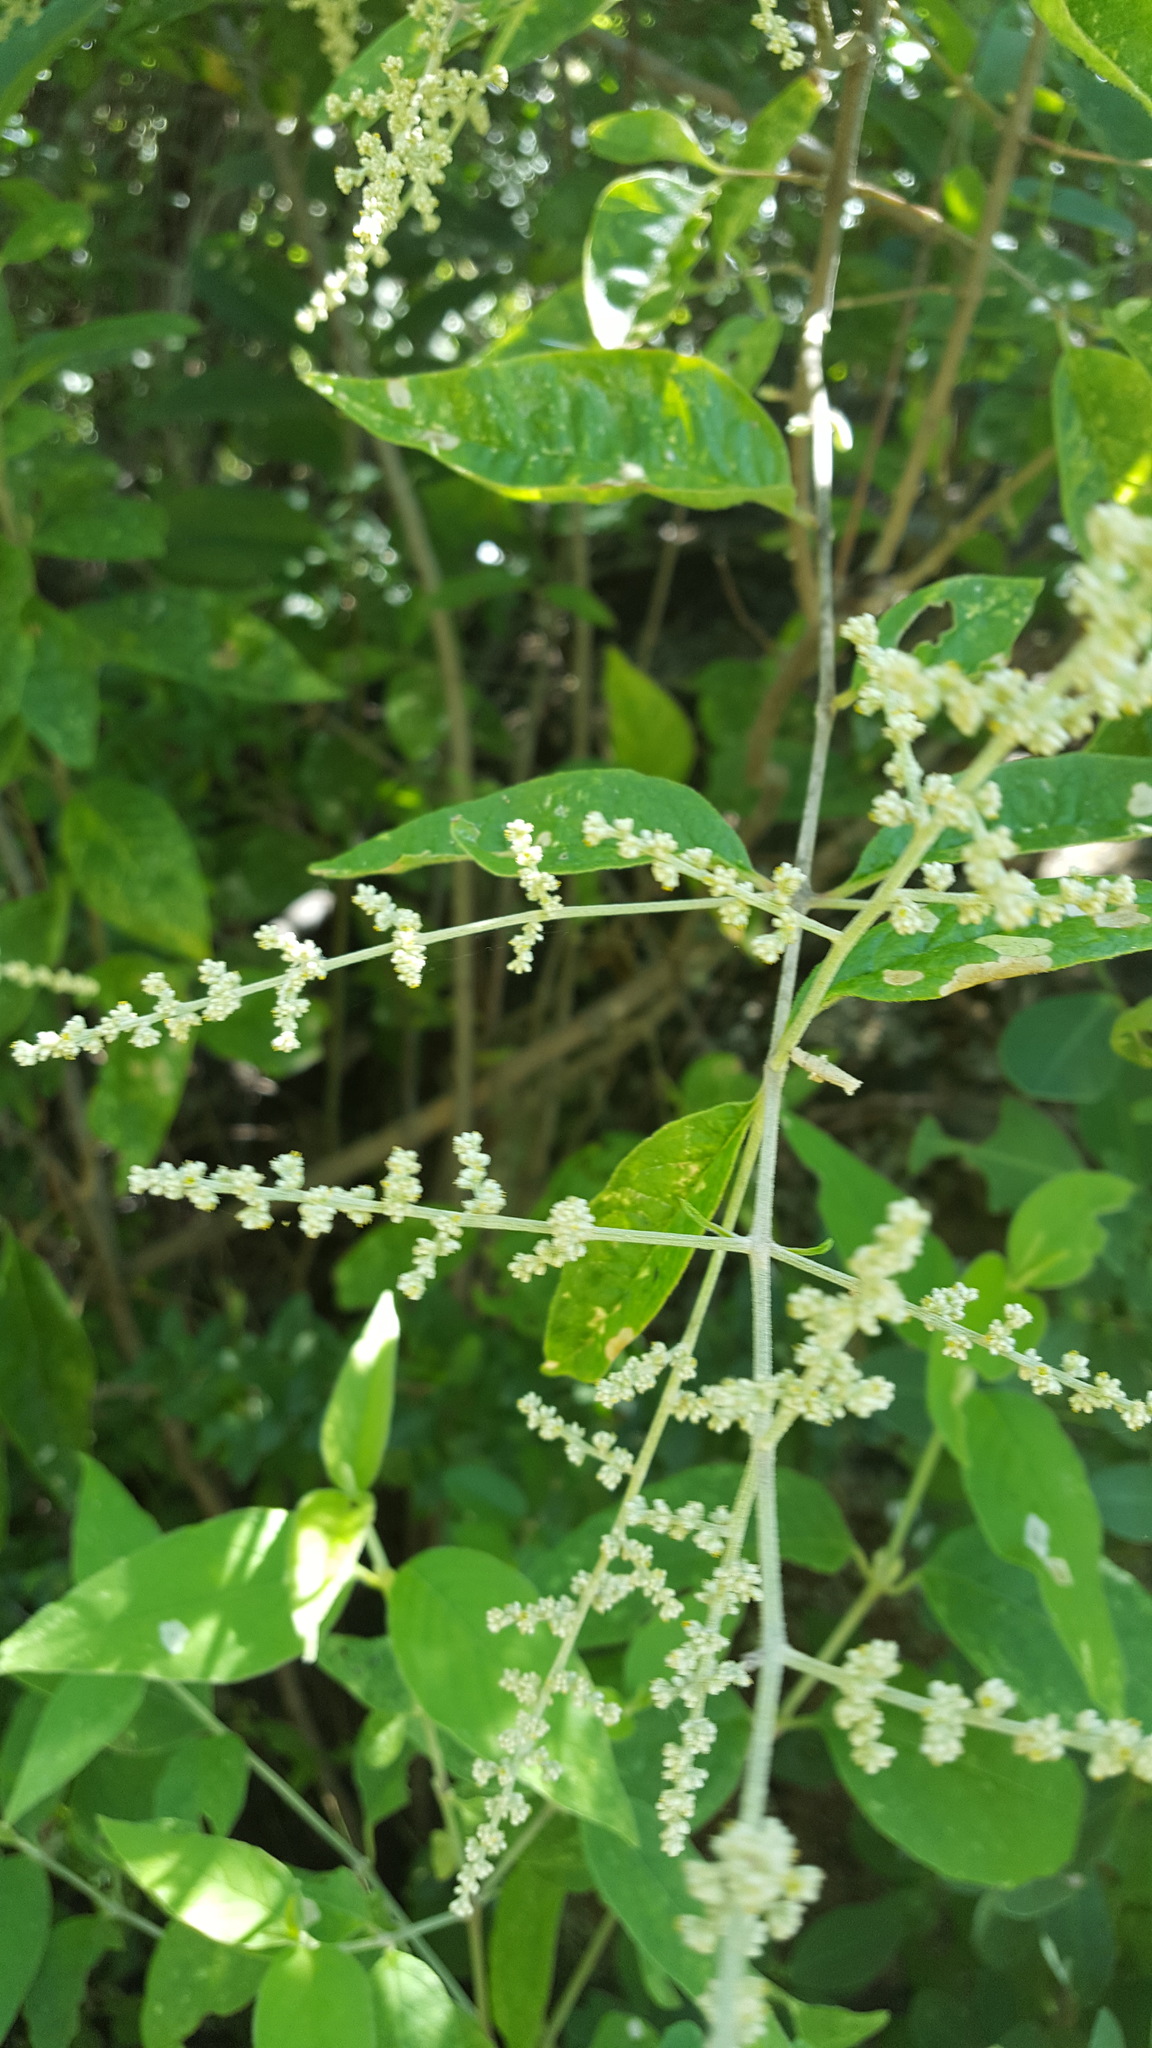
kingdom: Plantae
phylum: Tracheophyta
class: Magnoliopsida
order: Caryophyllales
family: Amaranthaceae
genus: Iresine
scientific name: Iresine diffusa
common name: Juba's-bush
